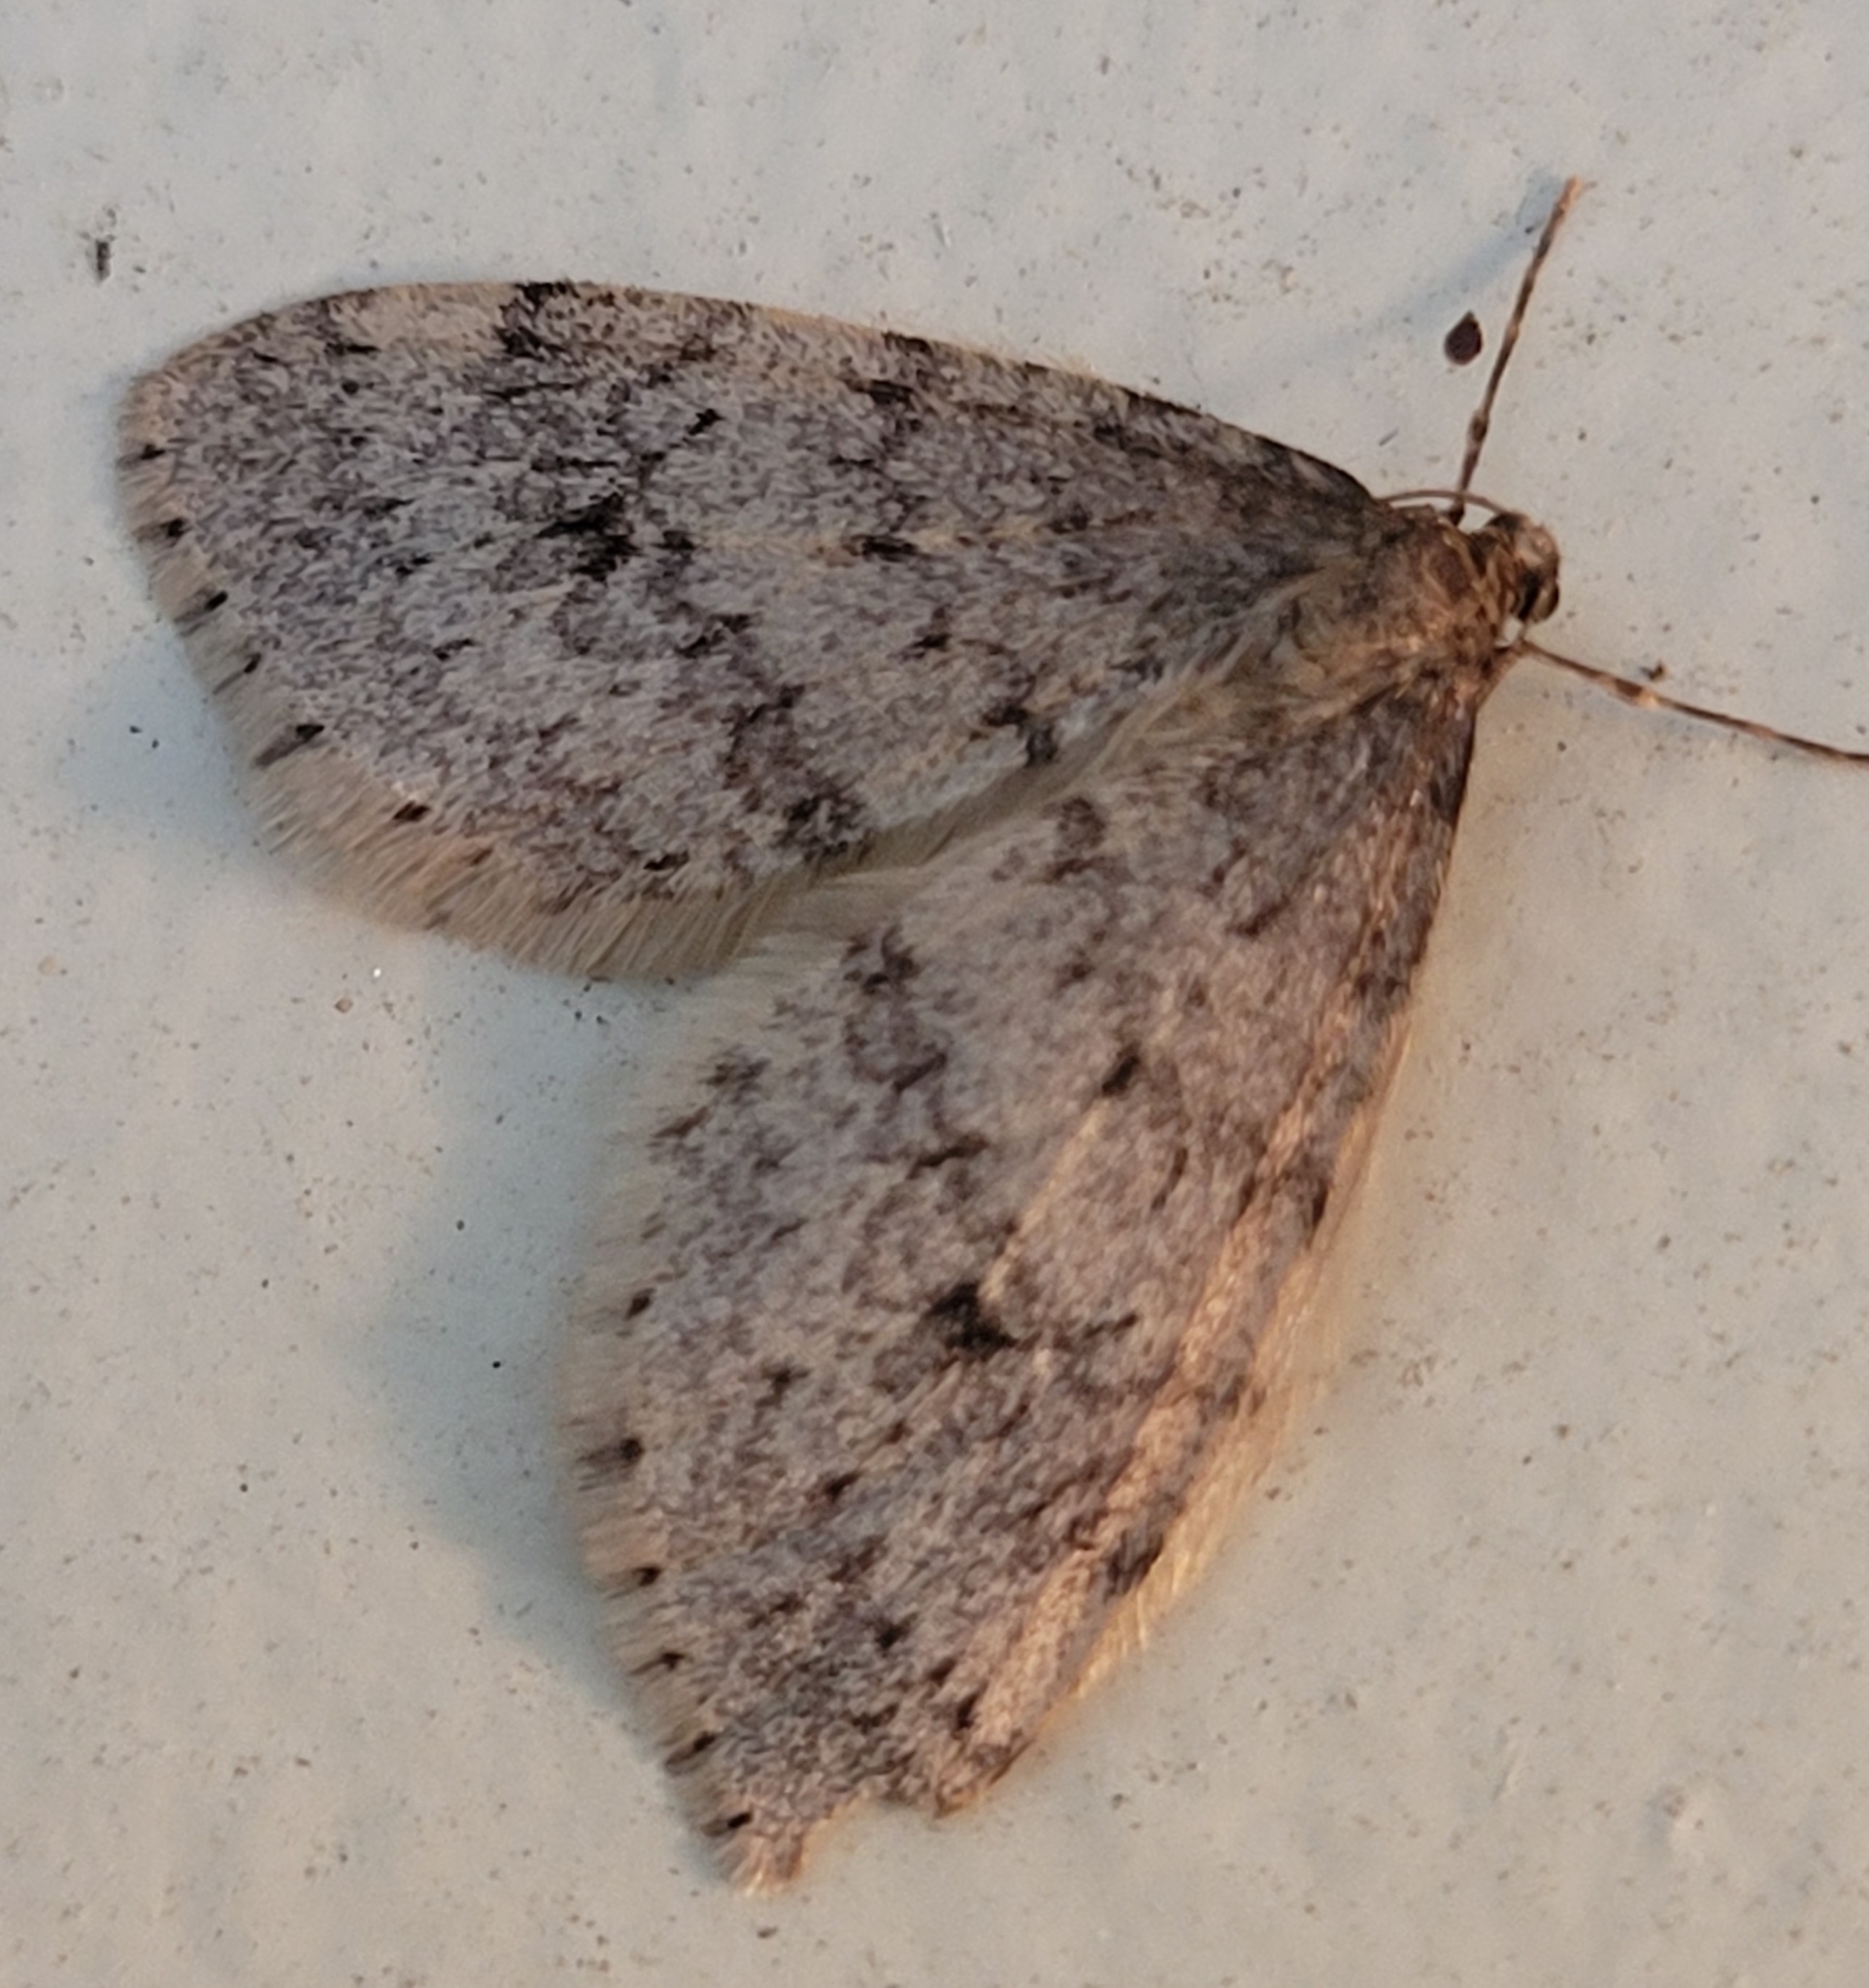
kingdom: Animalia
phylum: Arthropoda
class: Insecta
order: Lepidoptera
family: Geometridae
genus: Operophtera
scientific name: Operophtera bruceata
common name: Bruce spanworm
